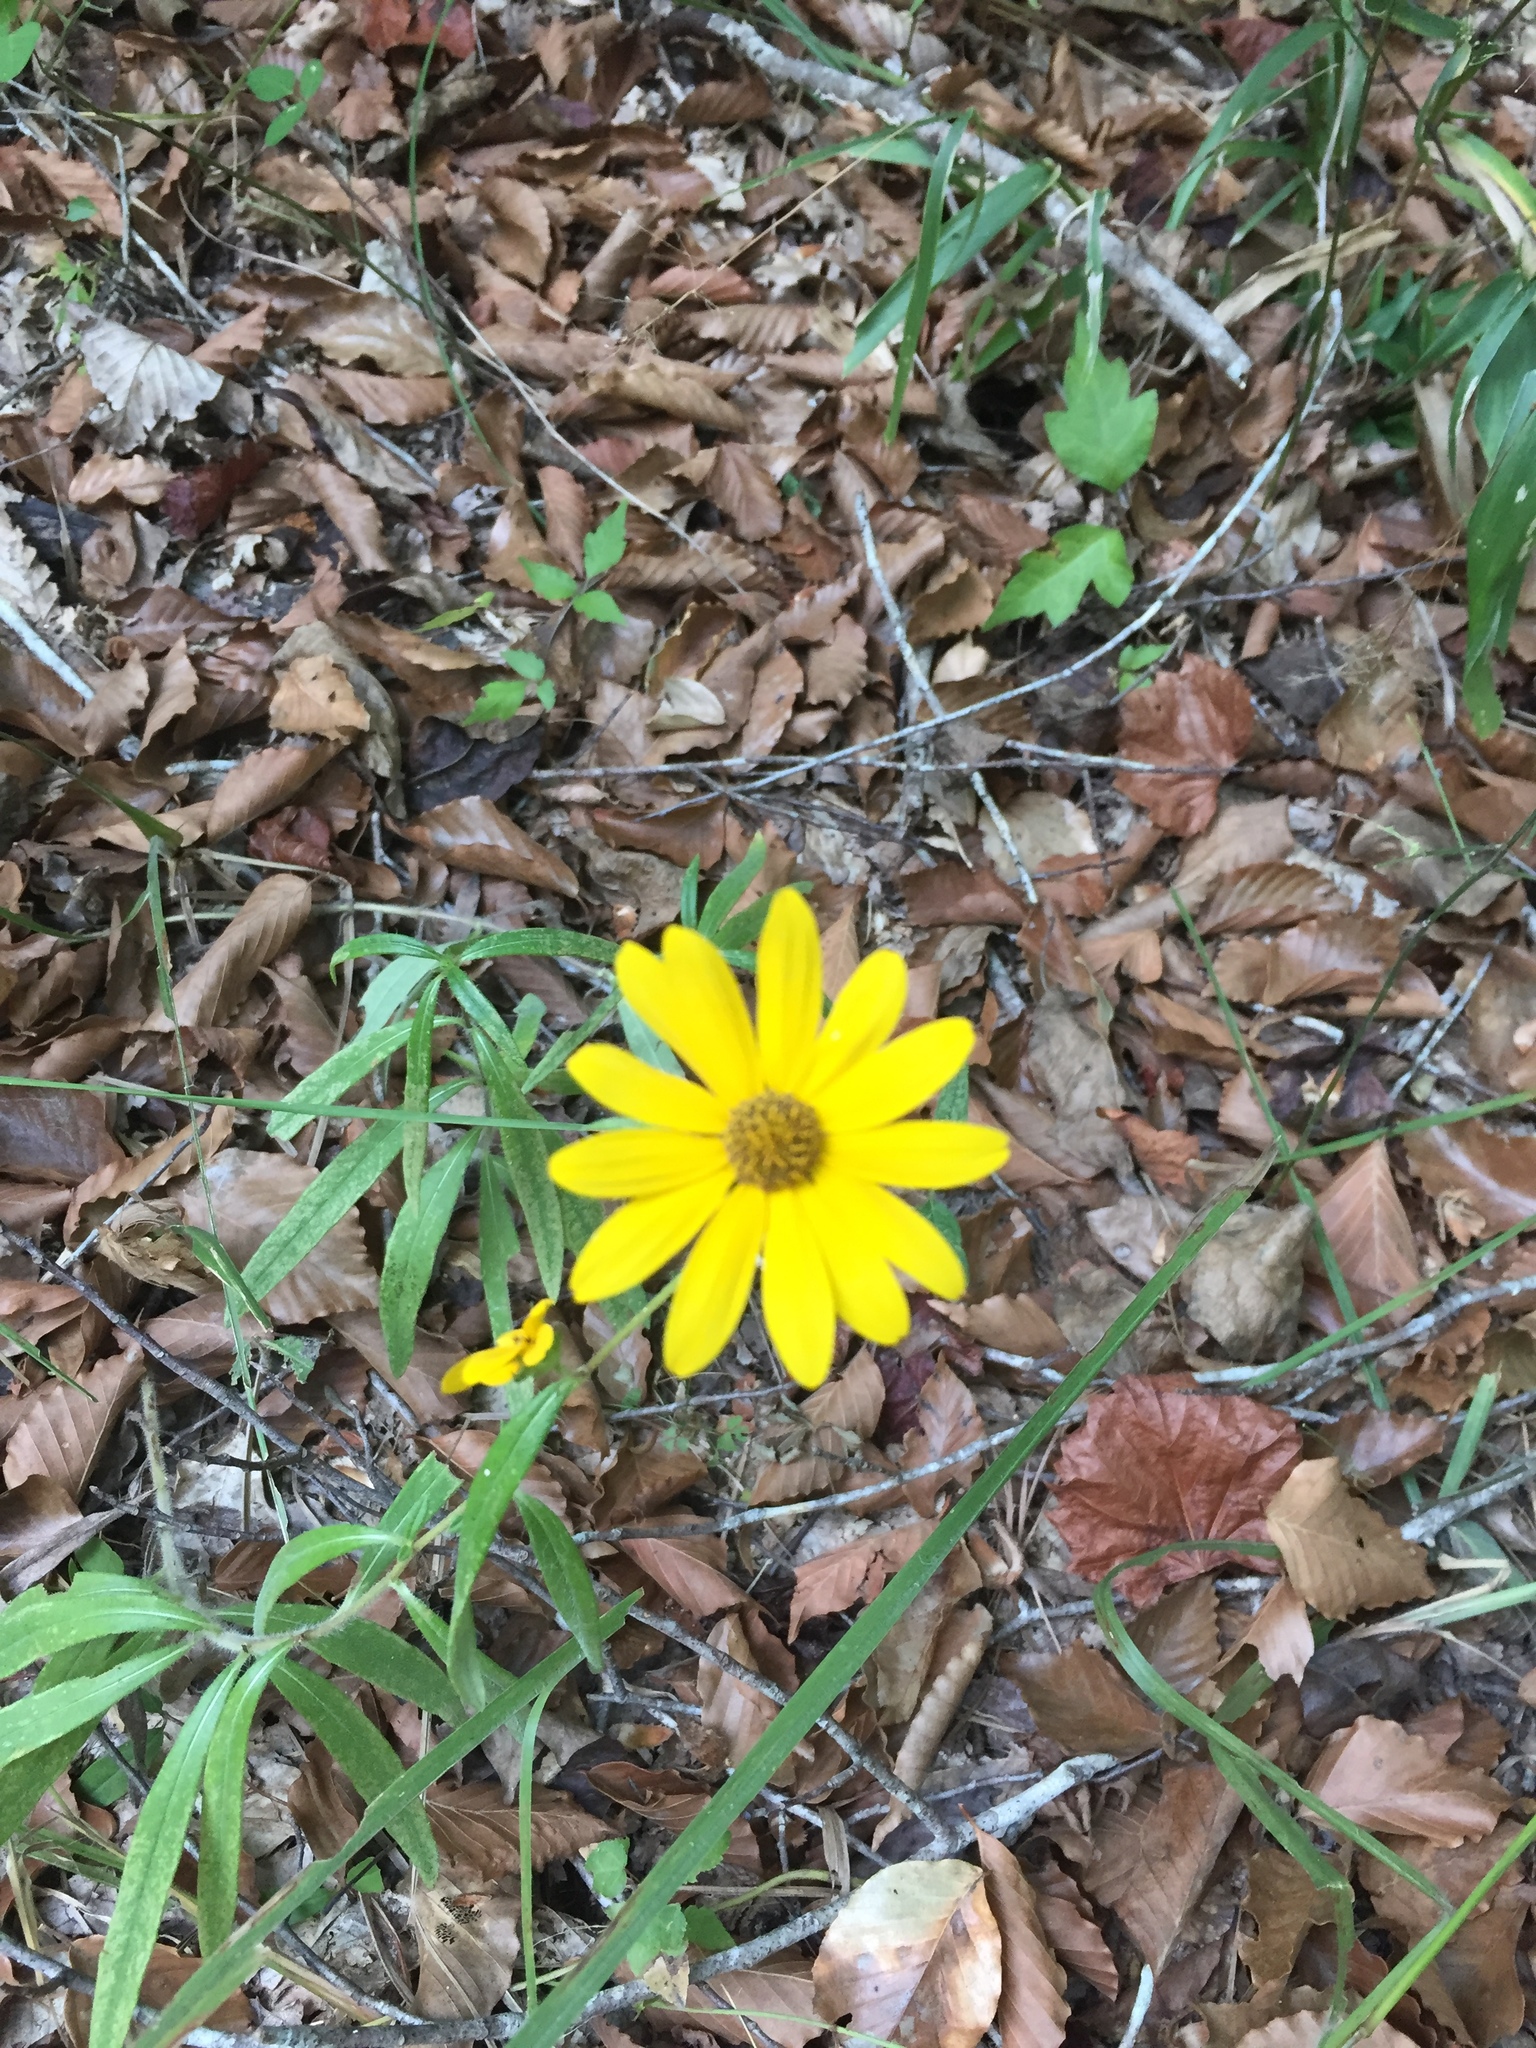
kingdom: Plantae
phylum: Tracheophyta
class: Magnoliopsida
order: Asterales
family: Asteraceae
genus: Helianthus
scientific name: Helianthus angustifolius
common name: Swamp sunflower
